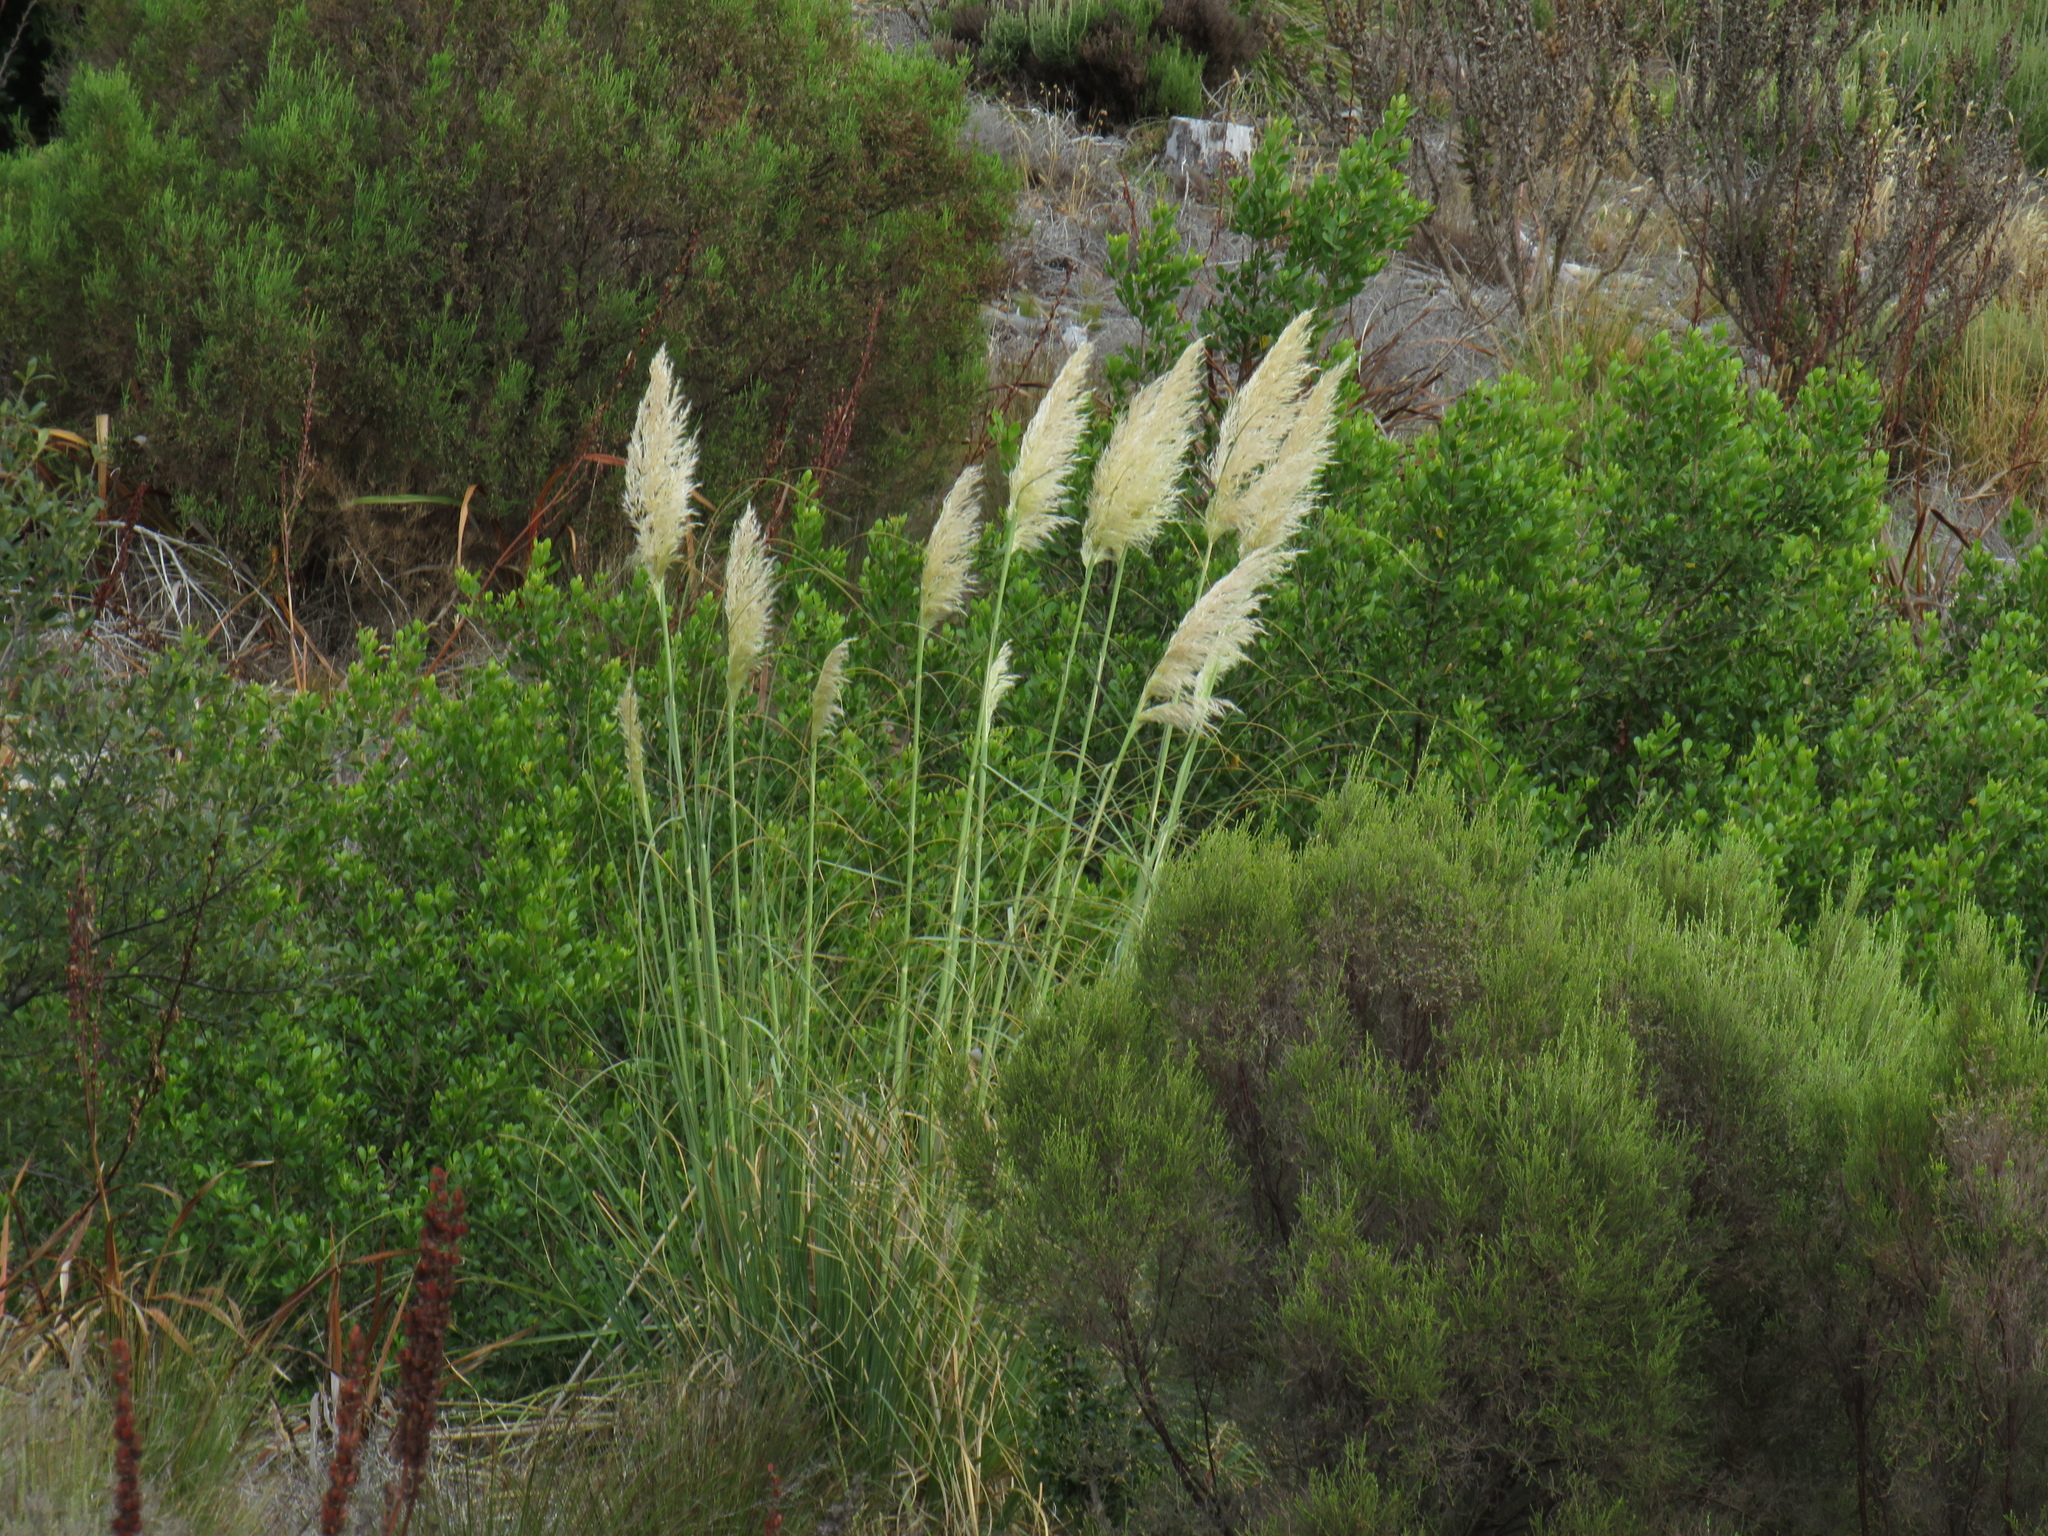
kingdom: Plantae
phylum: Tracheophyta
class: Liliopsida
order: Poales
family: Poaceae
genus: Cortaderia
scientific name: Cortaderia selloana
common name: Uruguayan pampas grass
